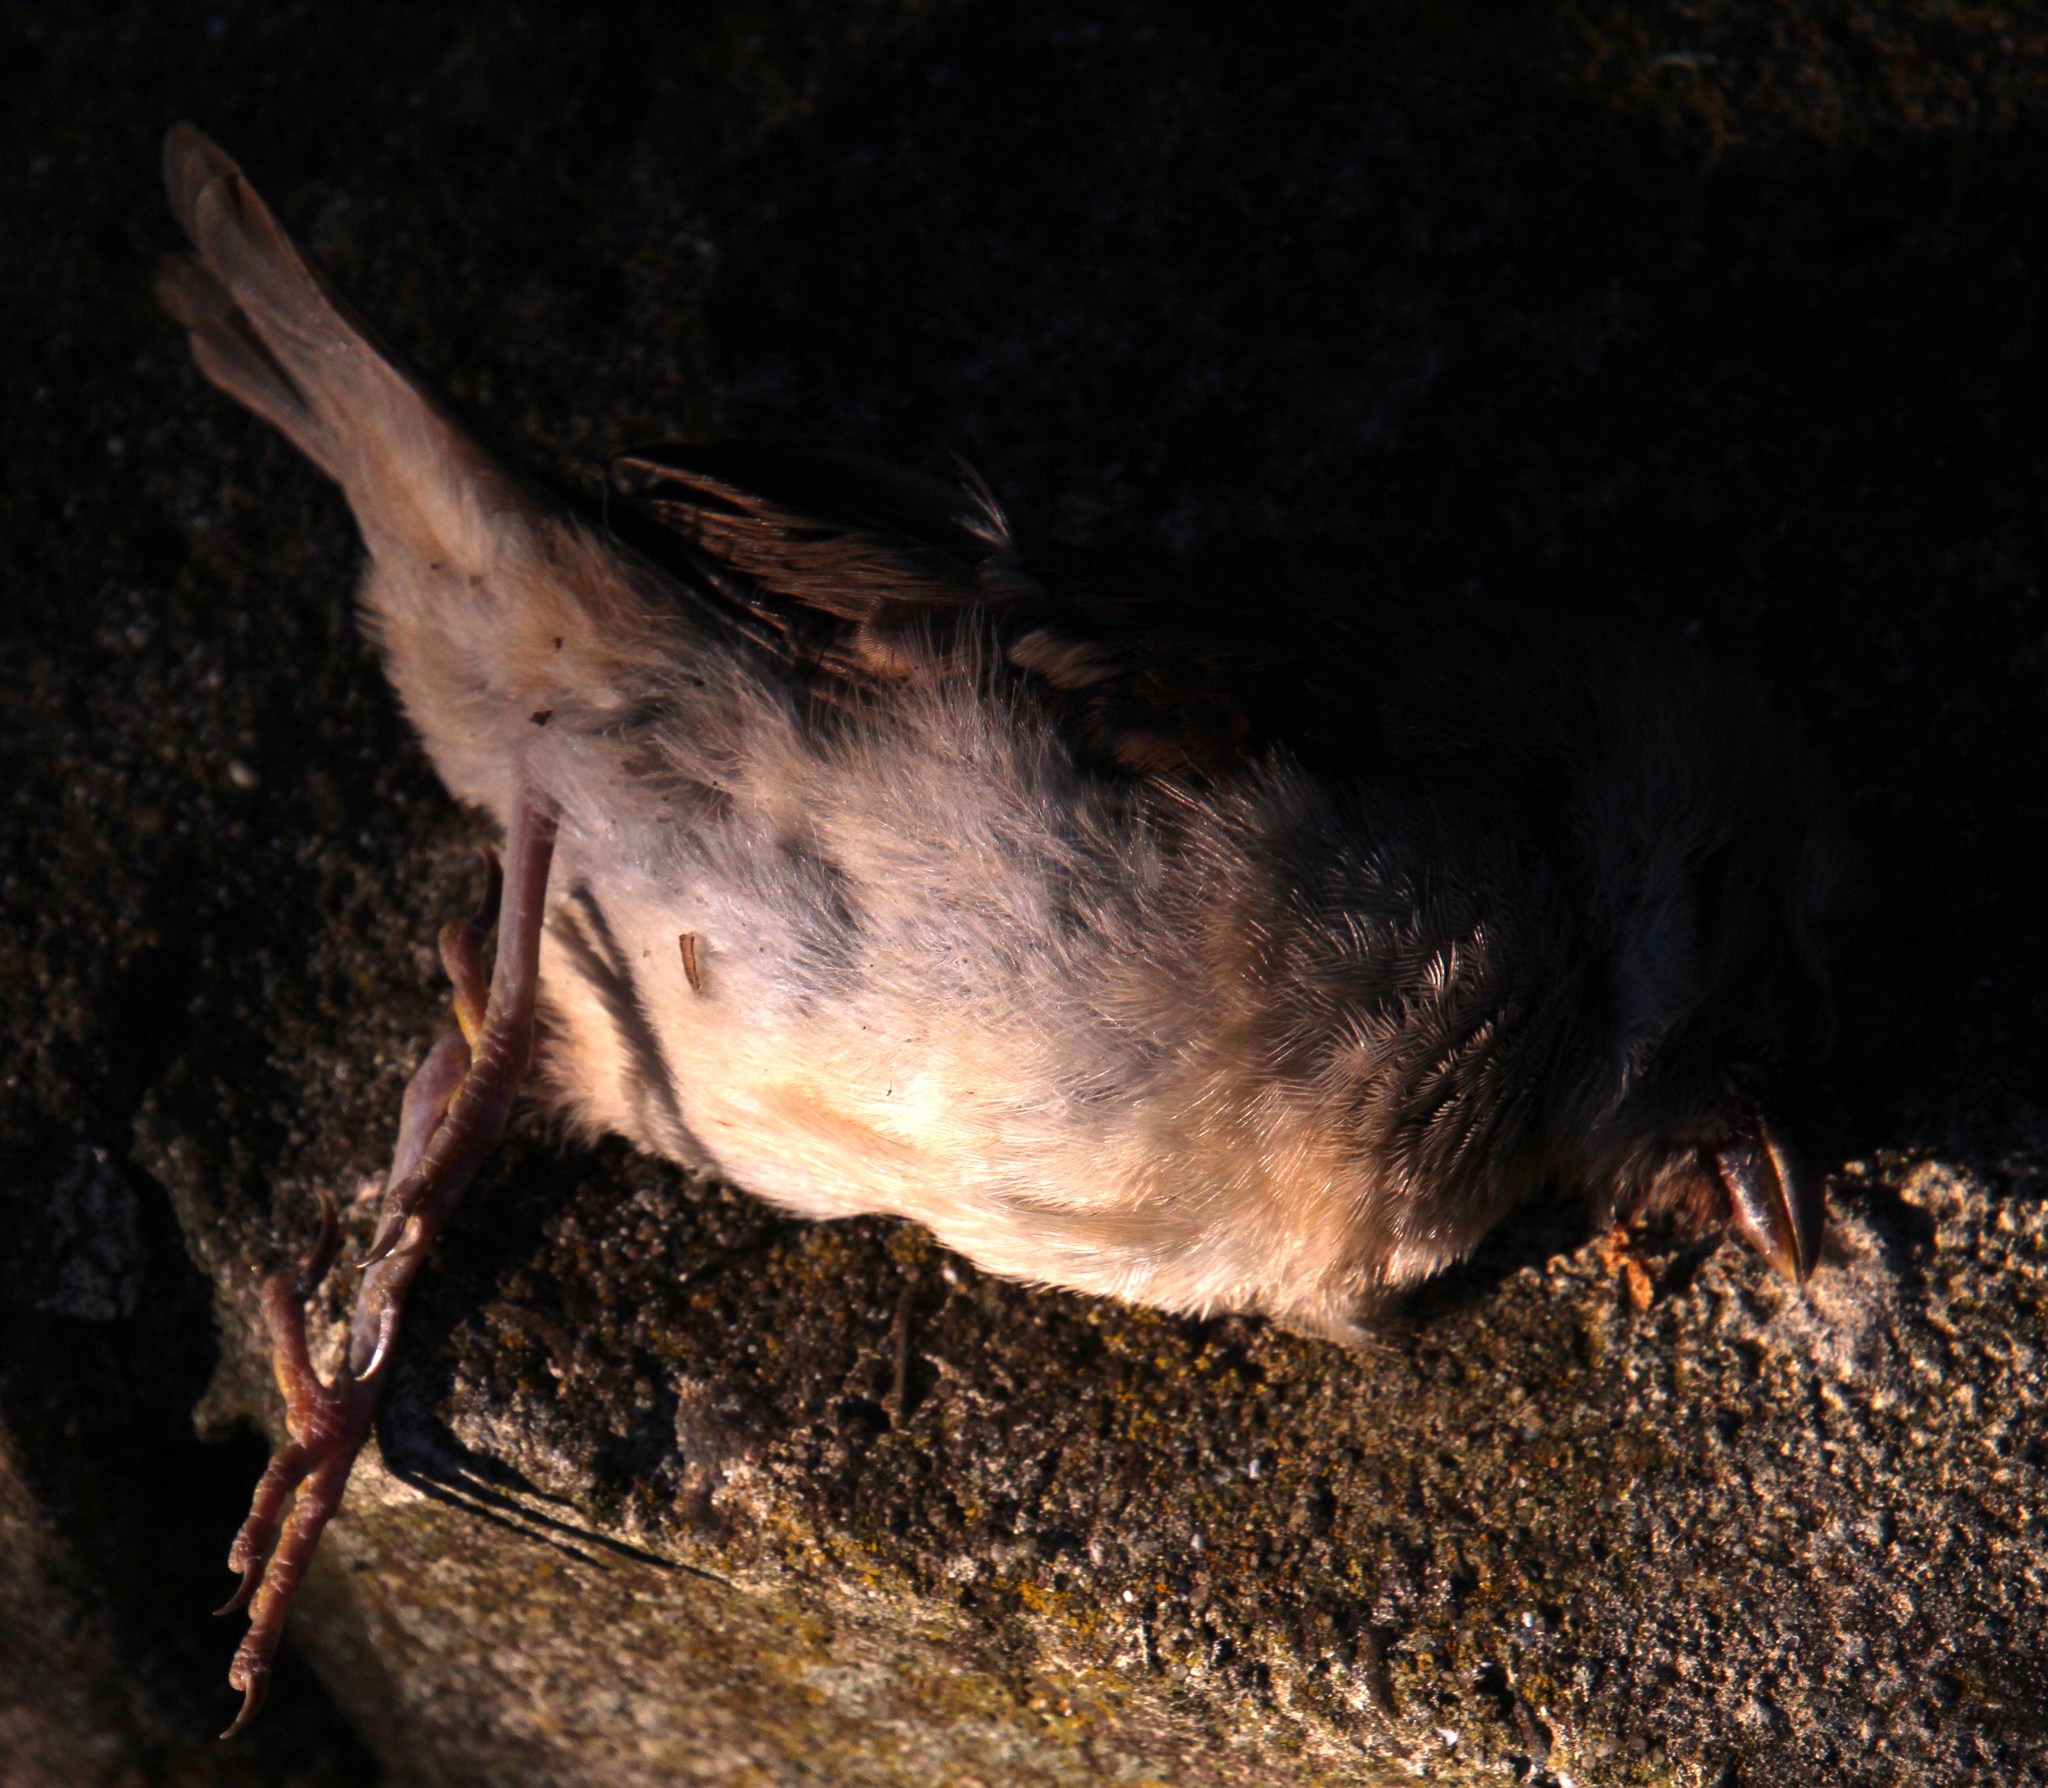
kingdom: Animalia
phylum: Chordata
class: Aves
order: Passeriformes
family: Passeridae
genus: Passer
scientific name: Passer melanurus
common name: Cape sparrow
